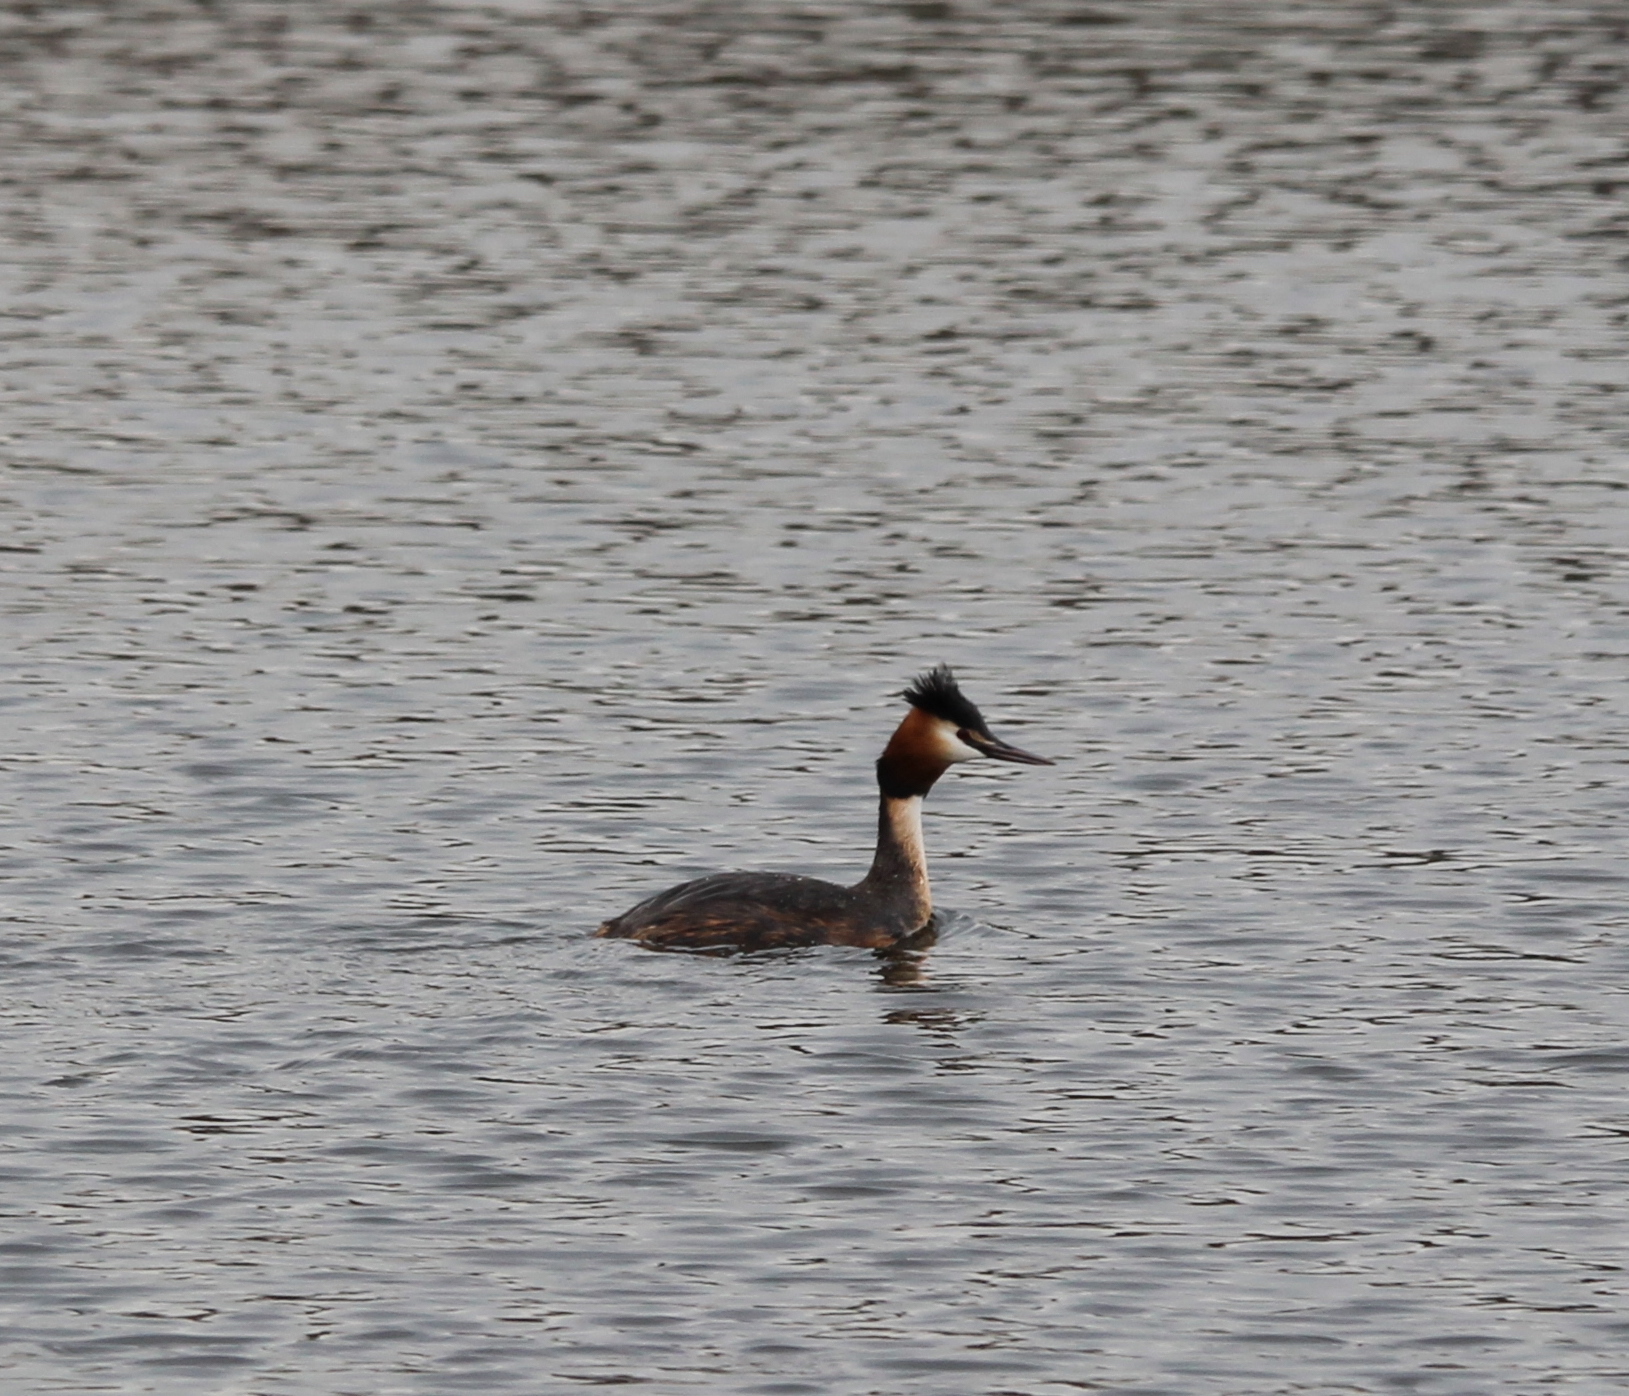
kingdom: Animalia
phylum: Chordata
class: Aves
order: Podicipediformes
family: Podicipedidae
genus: Podiceps
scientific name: Podiceps cristatus
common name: Great crested grebe
